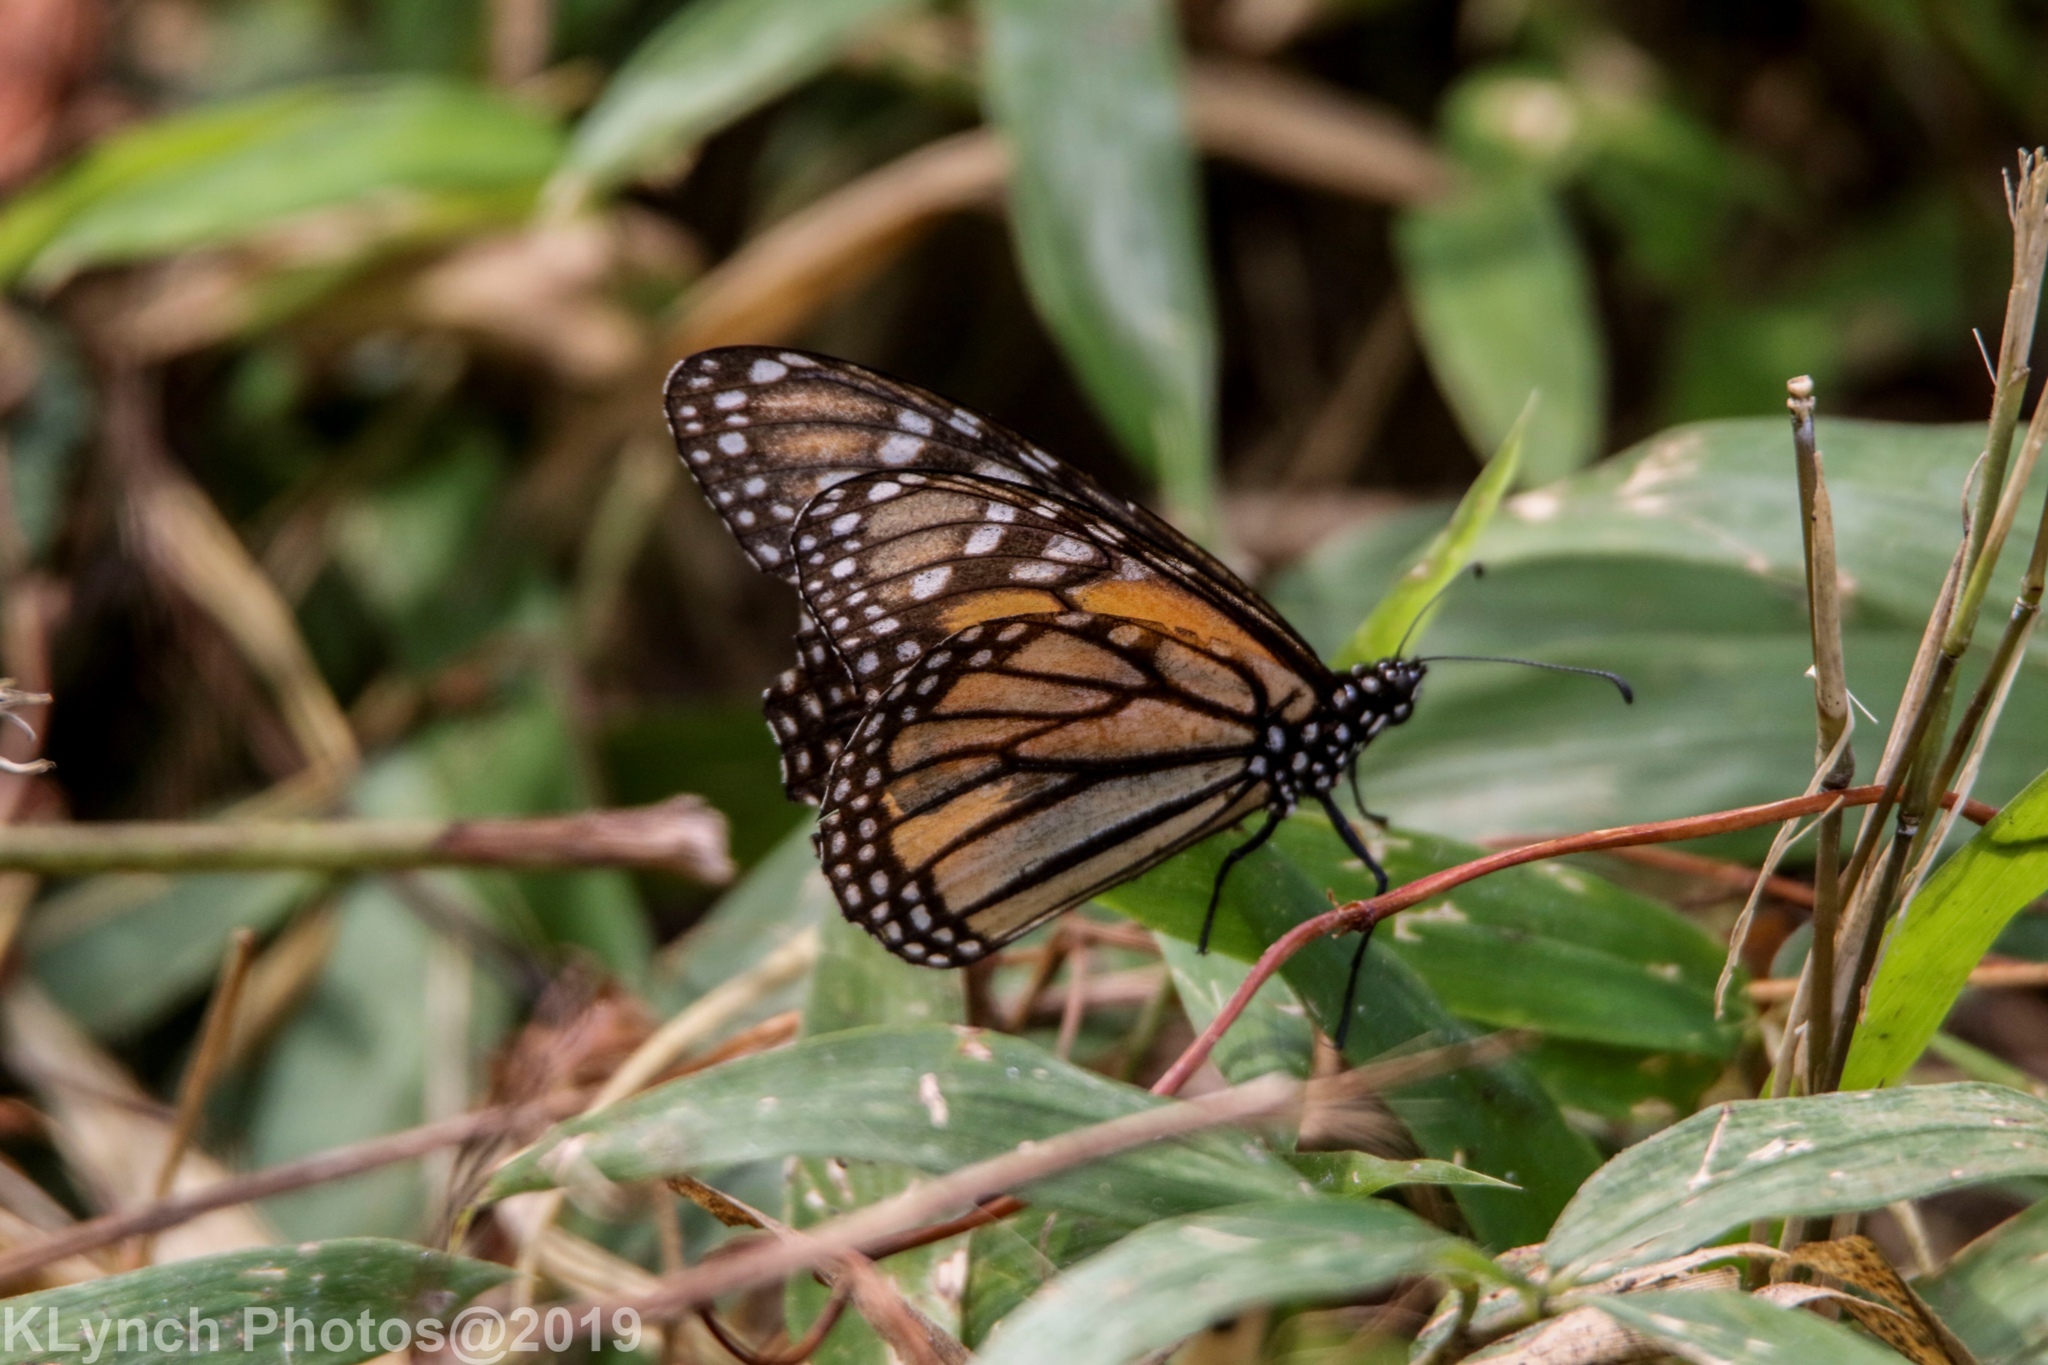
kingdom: Animalia
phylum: Arthropoda
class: Insecta
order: Lepidoptera
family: Nymphalidae
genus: Danaus
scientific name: Danaus plexippus
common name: Monarch
